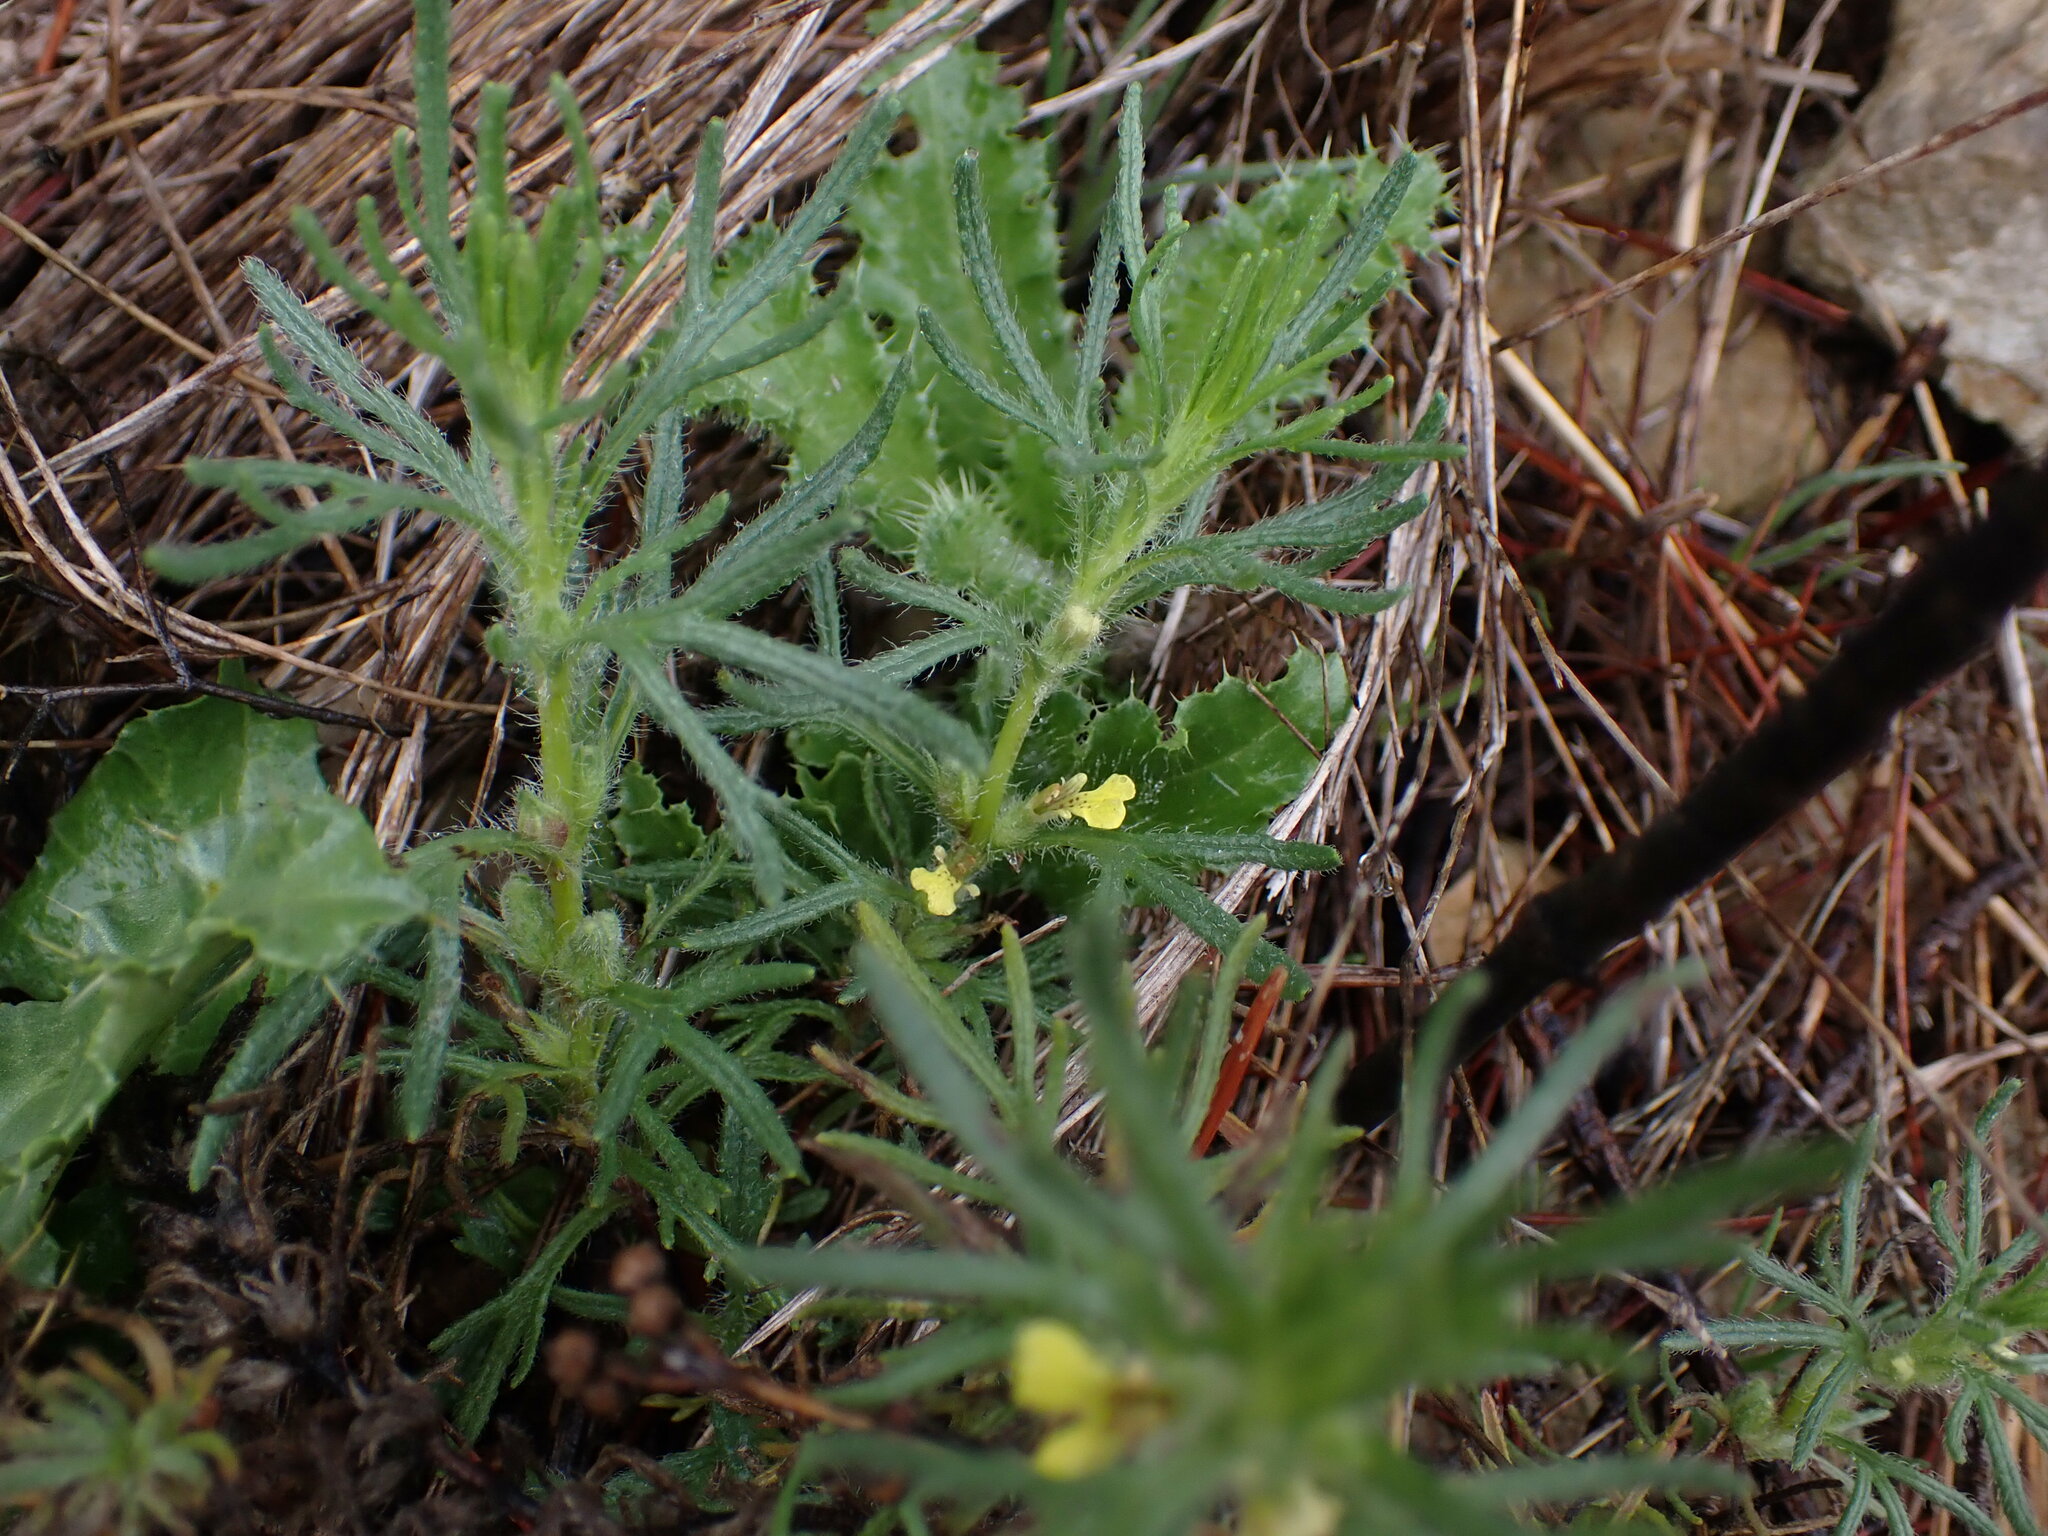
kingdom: Plantae
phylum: Tracheophyta
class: Magnoliopsida
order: Lamiales
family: Lamiaceae
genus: Ajuga
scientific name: Ajuga chamaepitys
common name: Ground-pine
